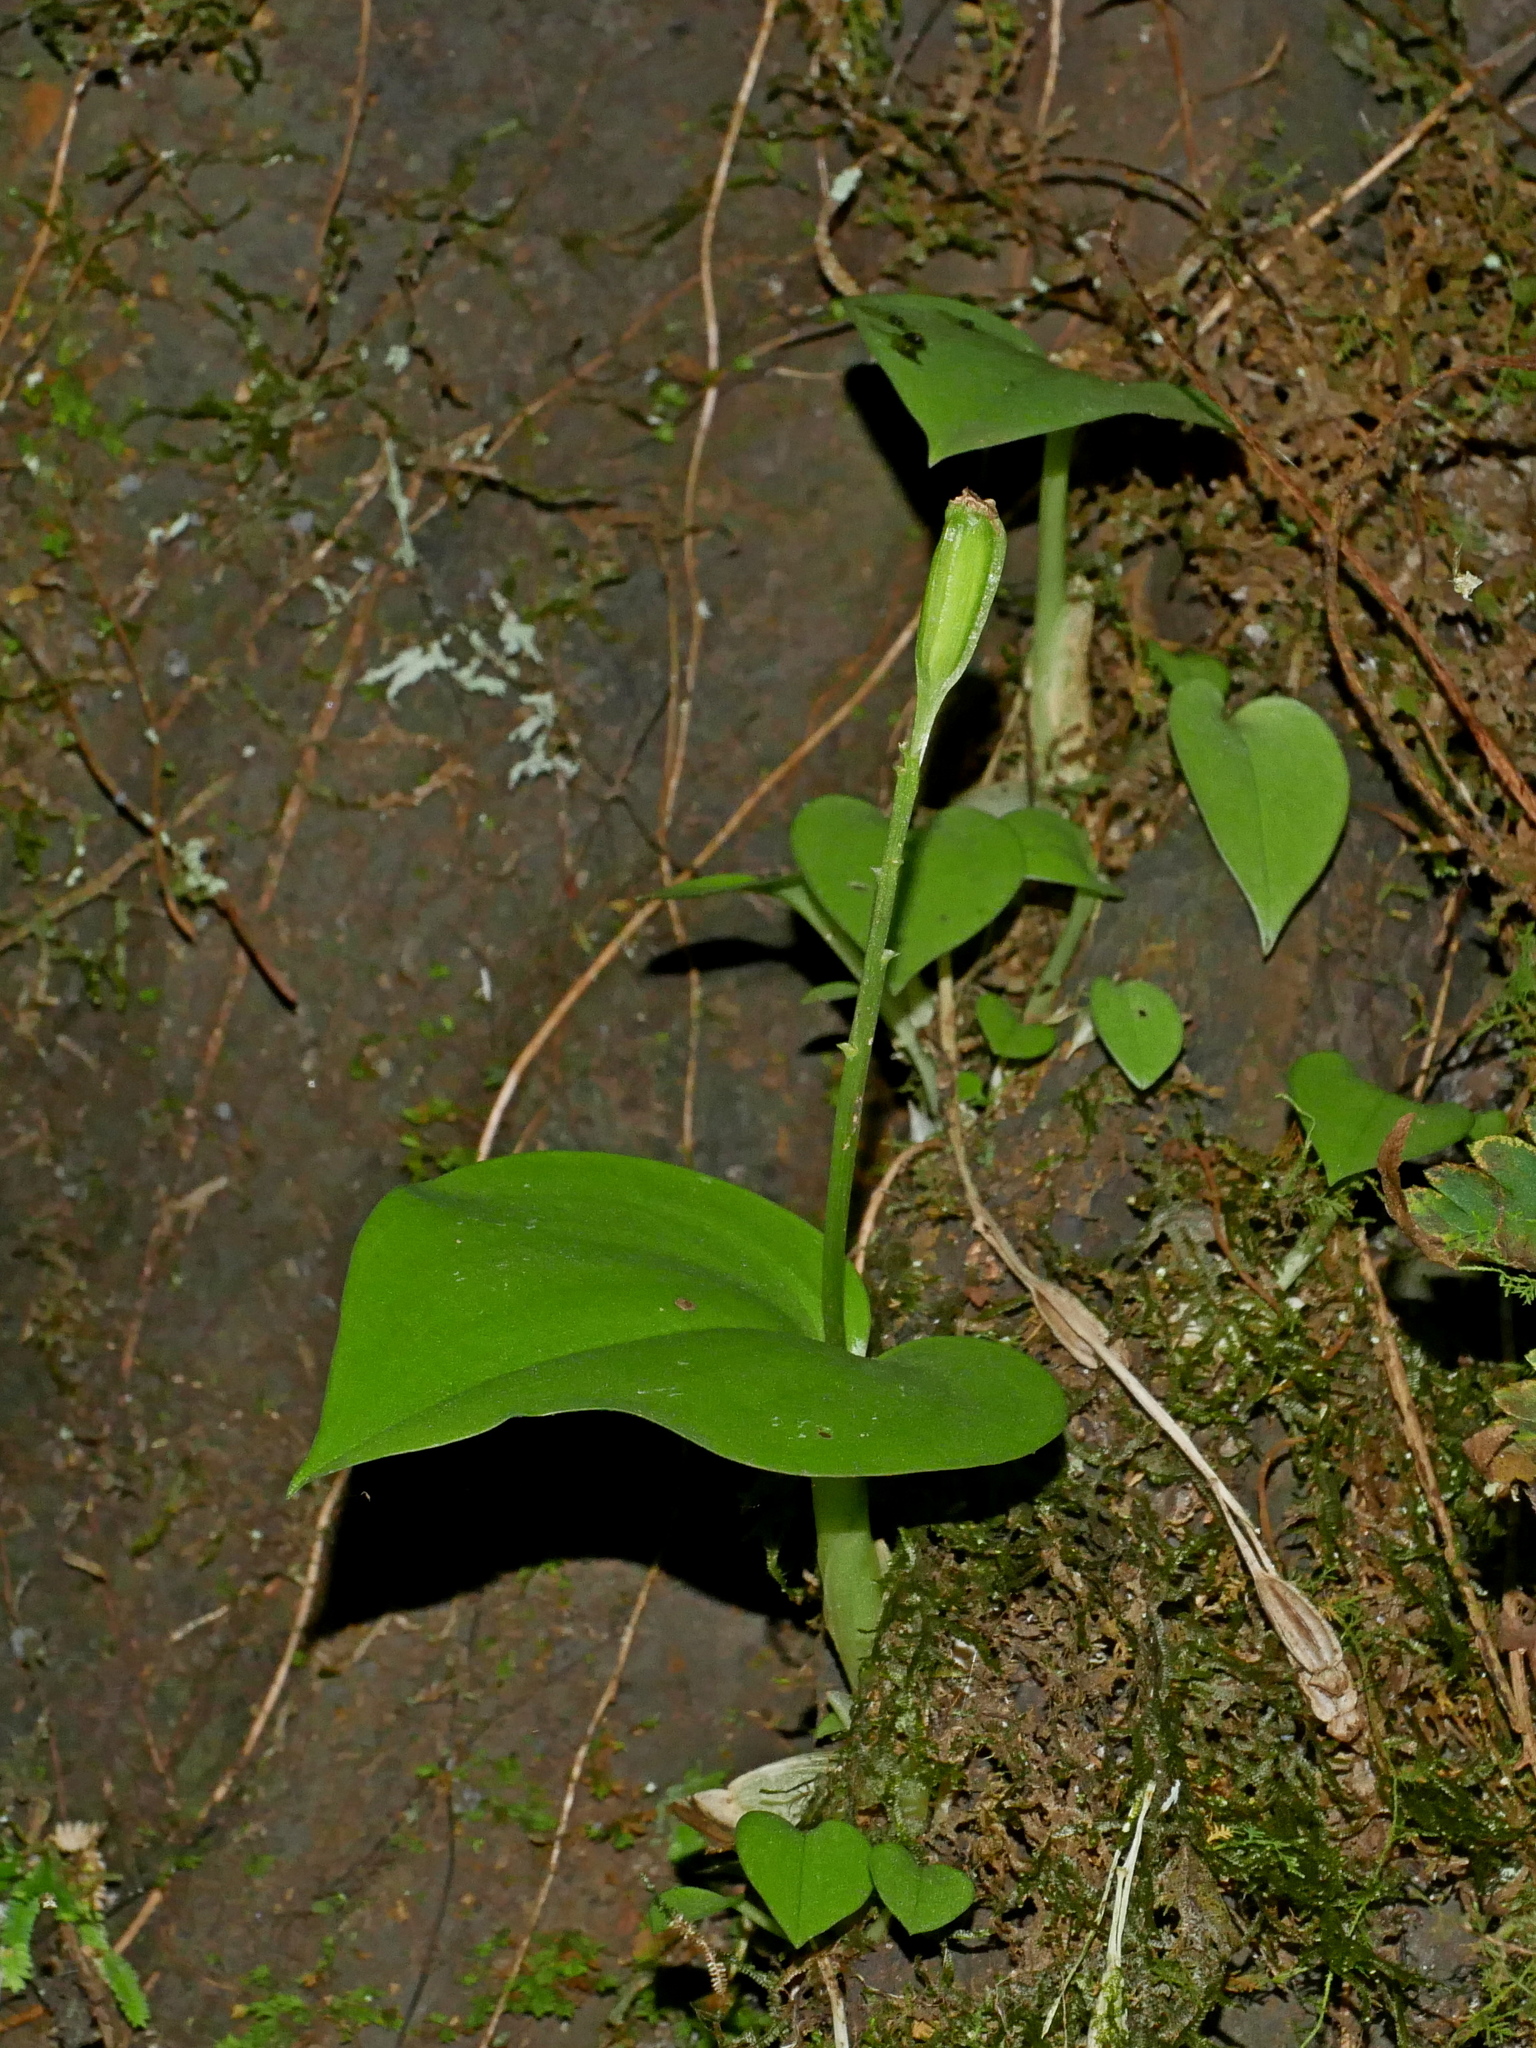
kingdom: Plantae
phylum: Tracheophyta
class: Liliopsida
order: Asparagales
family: Orchidaceae
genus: Liparis
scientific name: Liparis cordifolia
